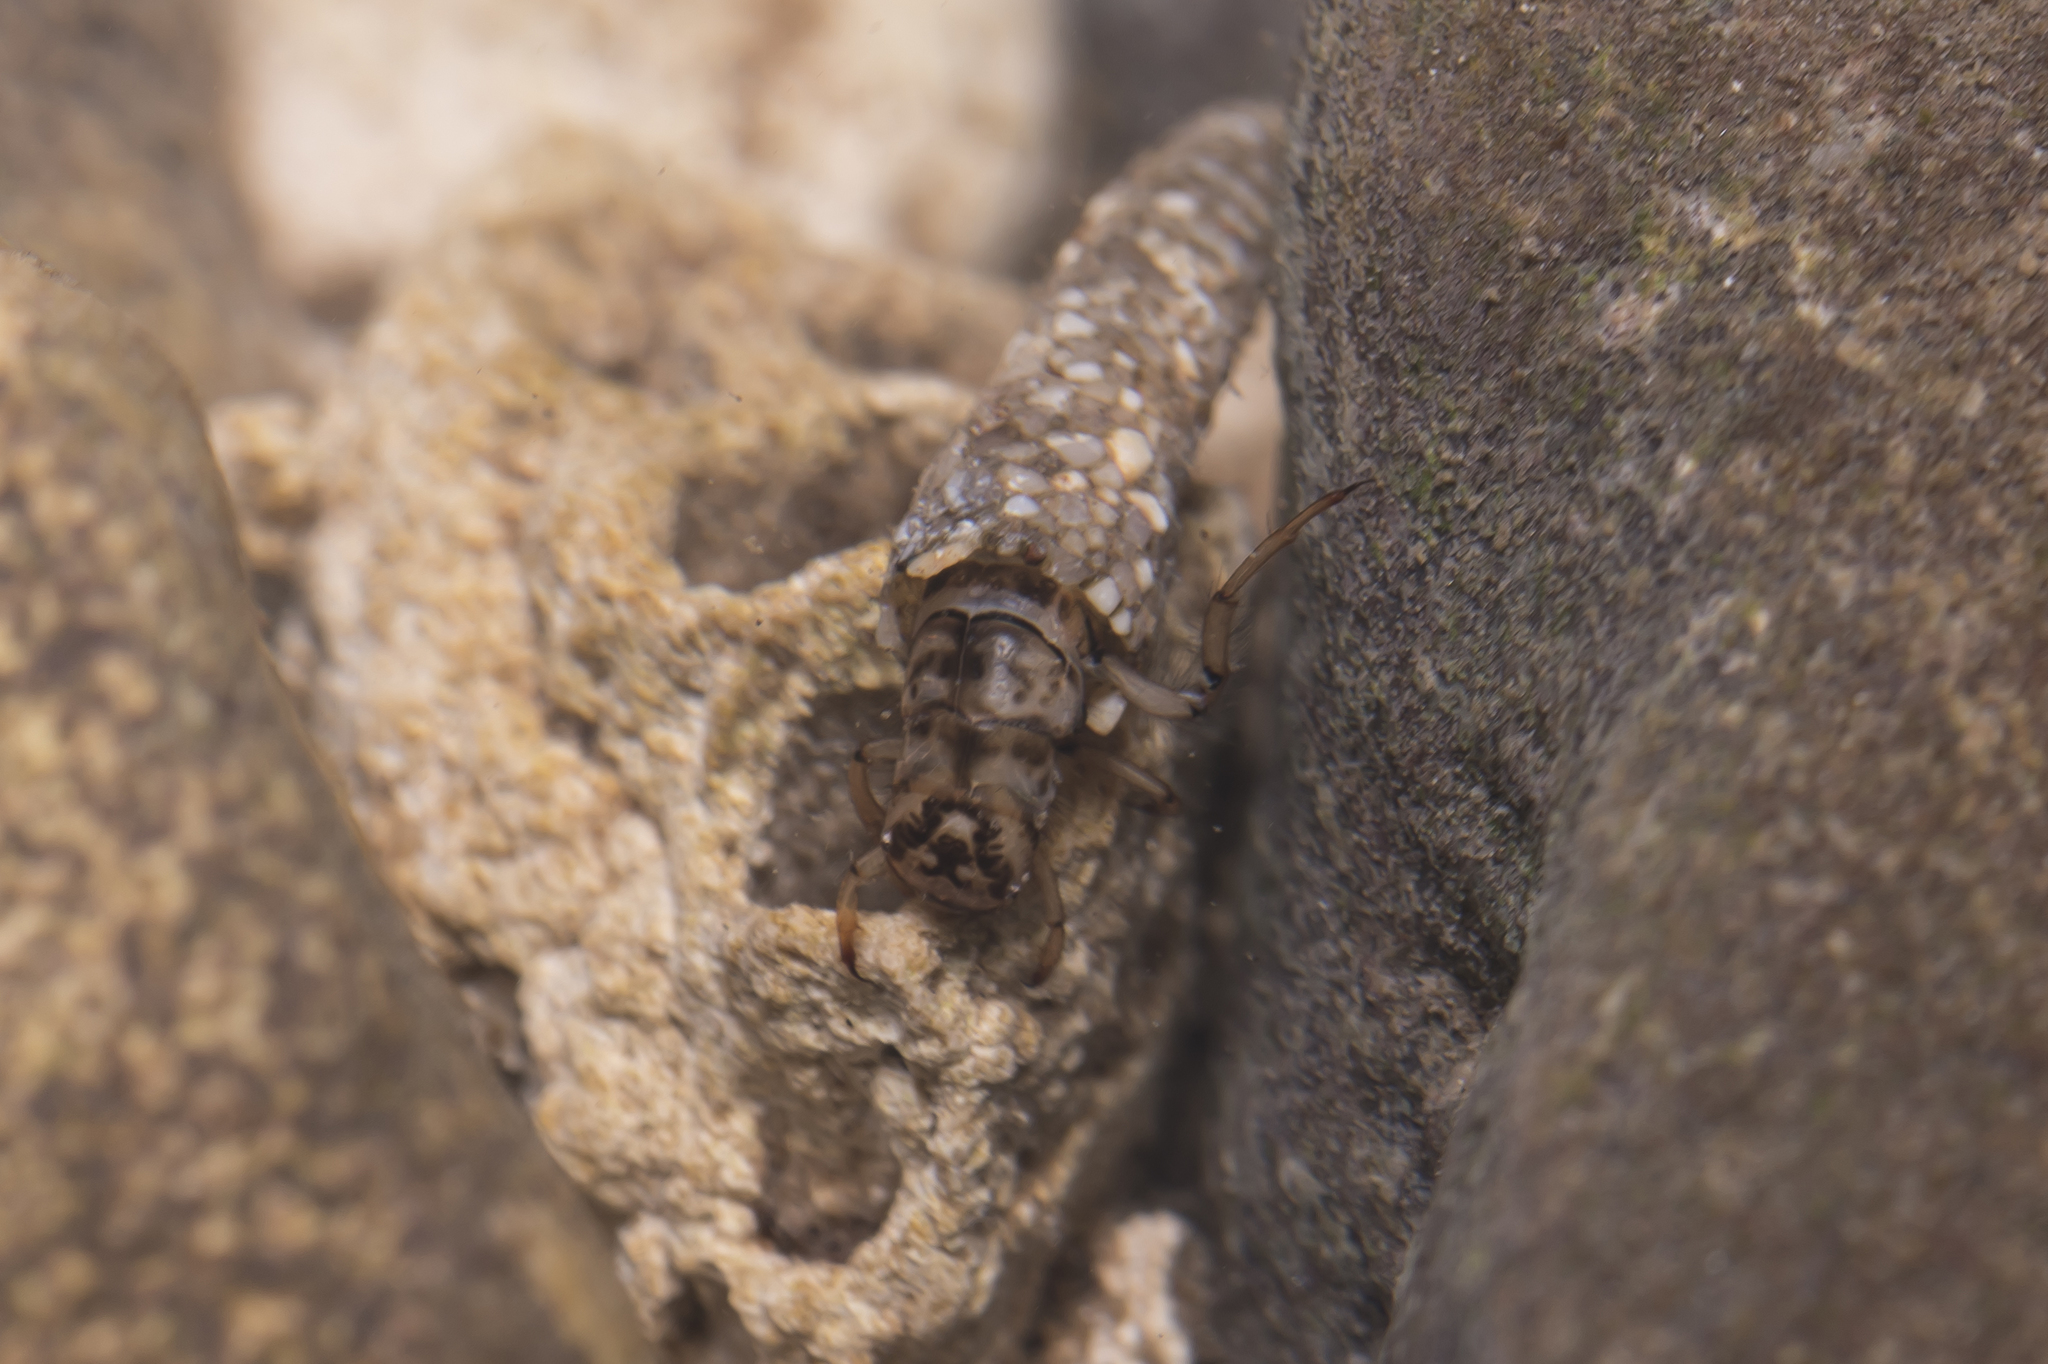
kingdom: Animalia
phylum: Arthropoda
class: Insecta
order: Trichoptera
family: Odontoceridae
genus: Odontocerum
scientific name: Odontocerum albicorne
